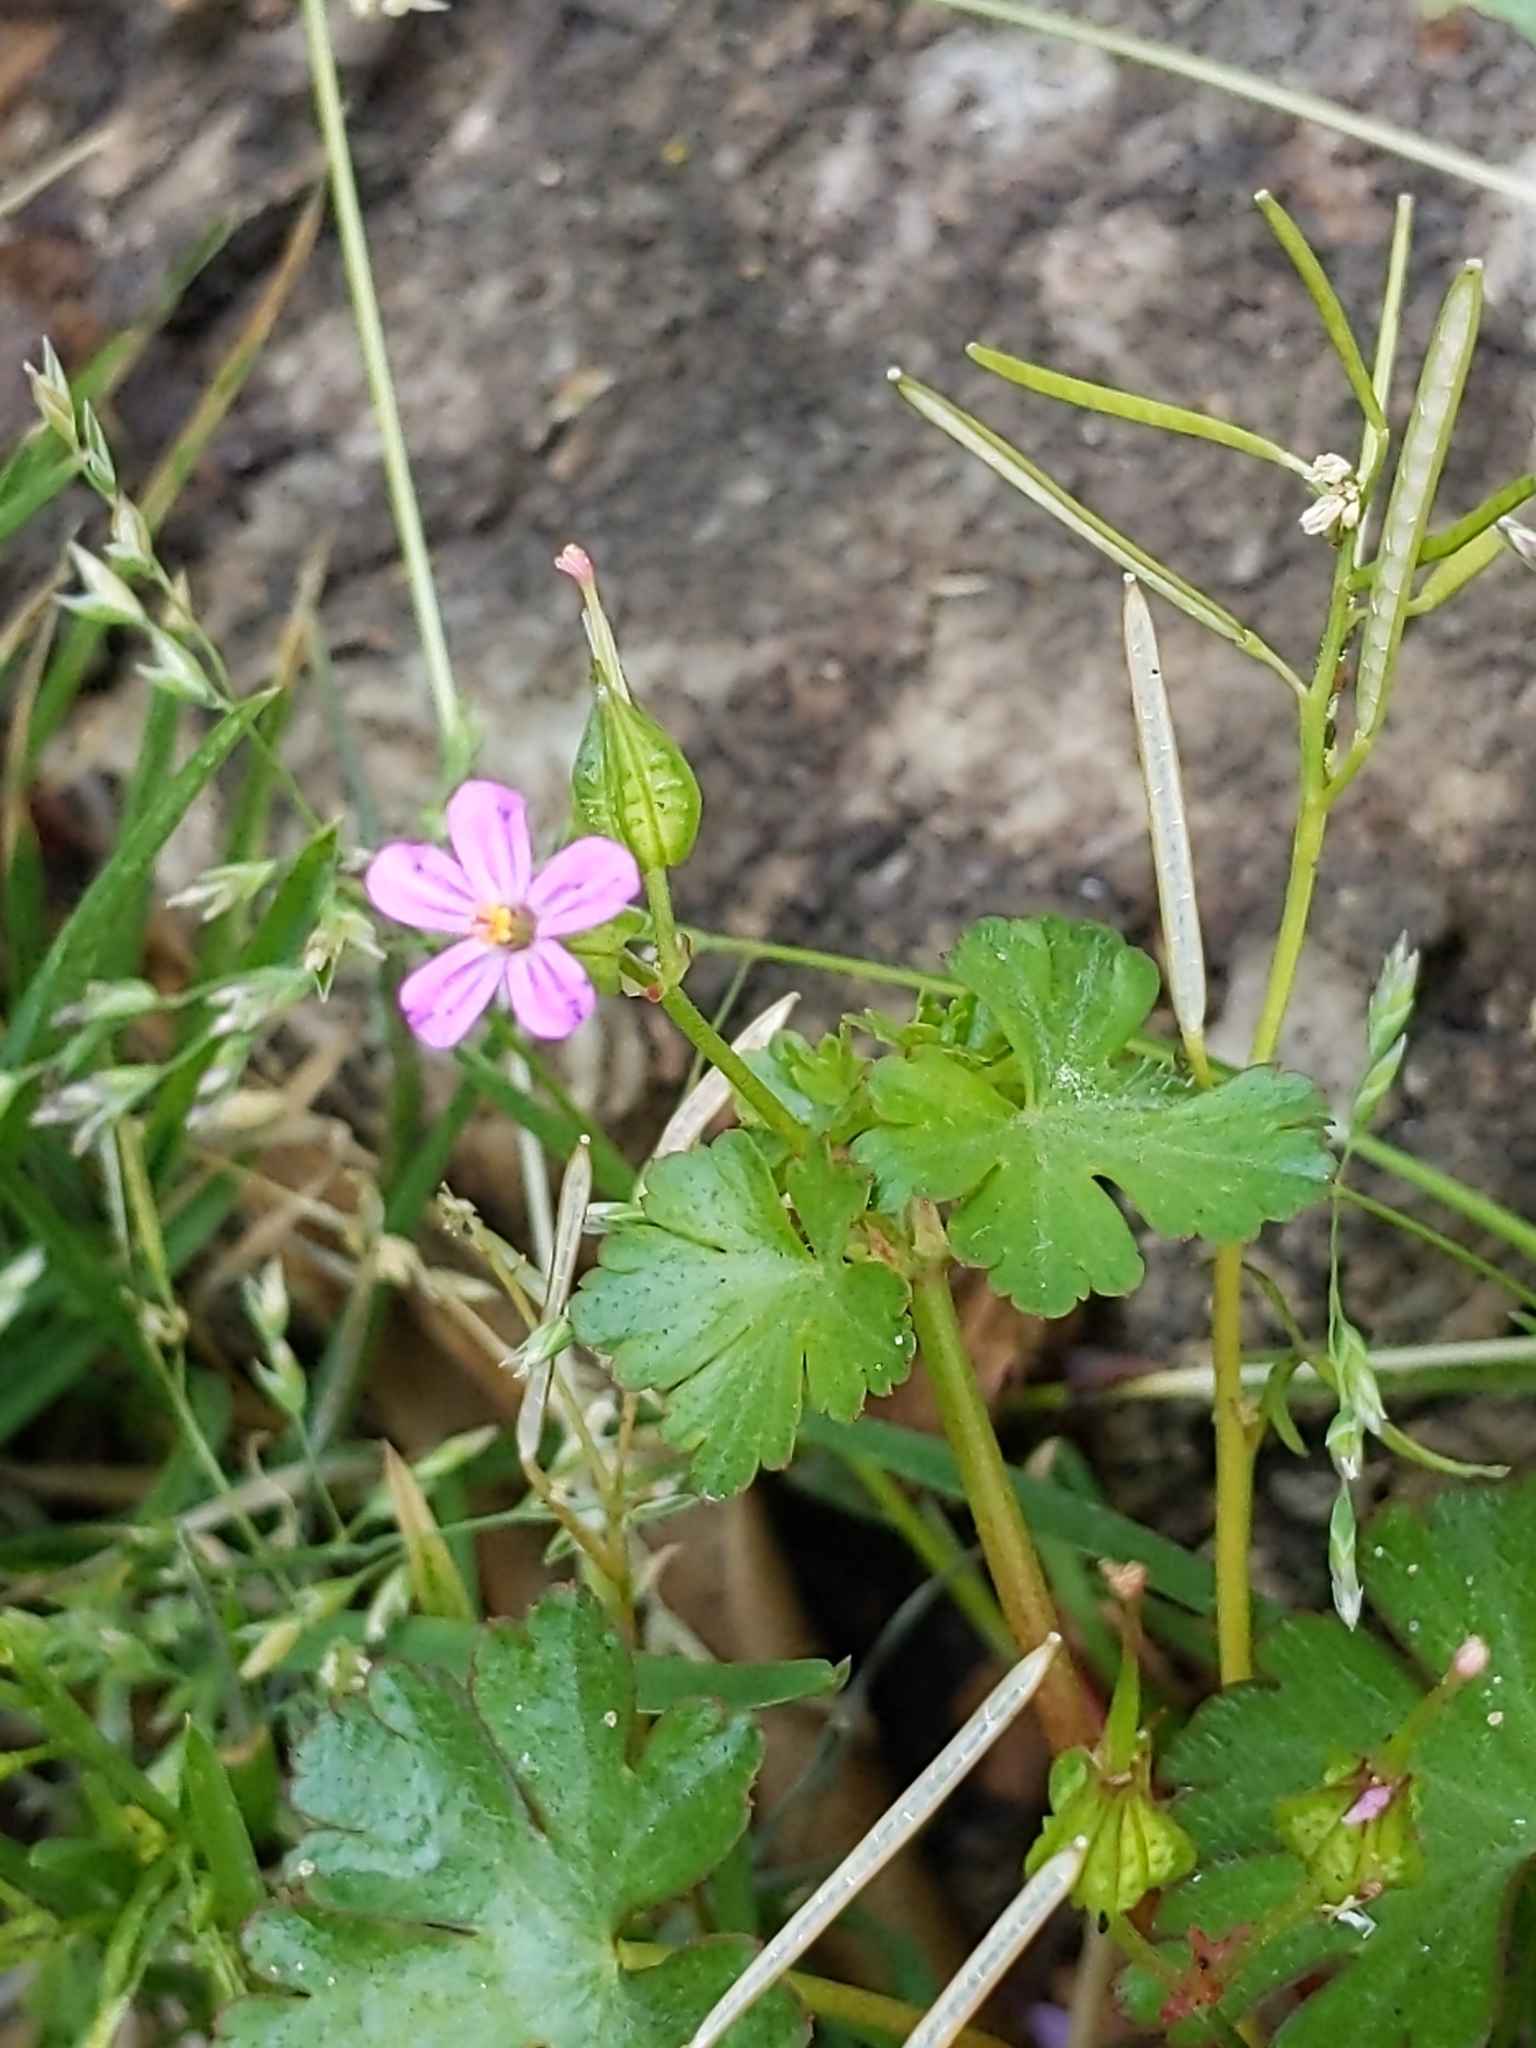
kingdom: Plantae
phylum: Tracheophyta
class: Magnoliopsida
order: Geraniales
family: Geraniaceae
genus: Geranium
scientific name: Geranium lucidum
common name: Shining crane's-bill
